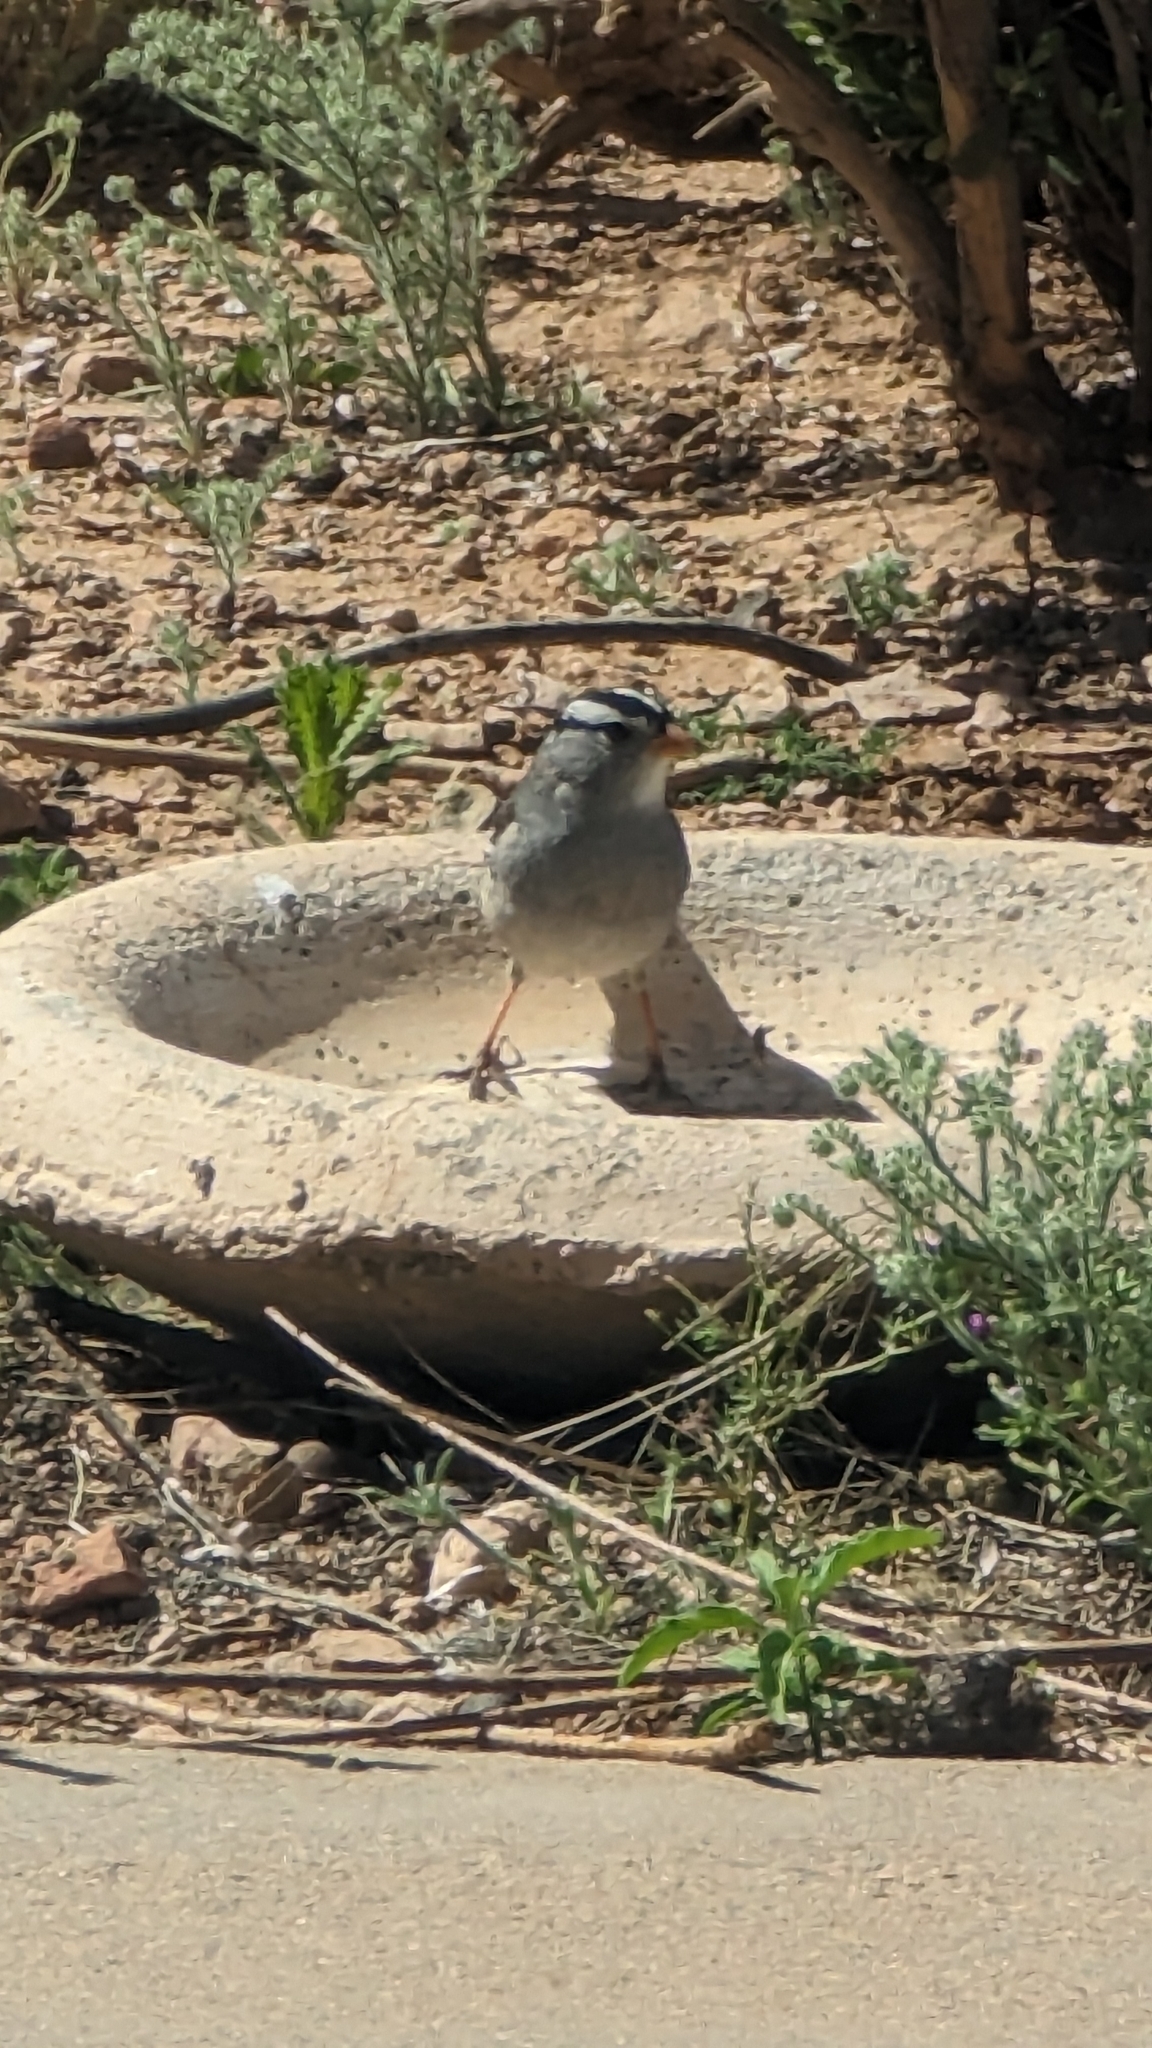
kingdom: Animalia
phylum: Chordata
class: Aves
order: Passeriformes
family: Passerellidae
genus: Zonotrichia
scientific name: Zonotrichia leucophrys
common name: White-crowned sparrow
